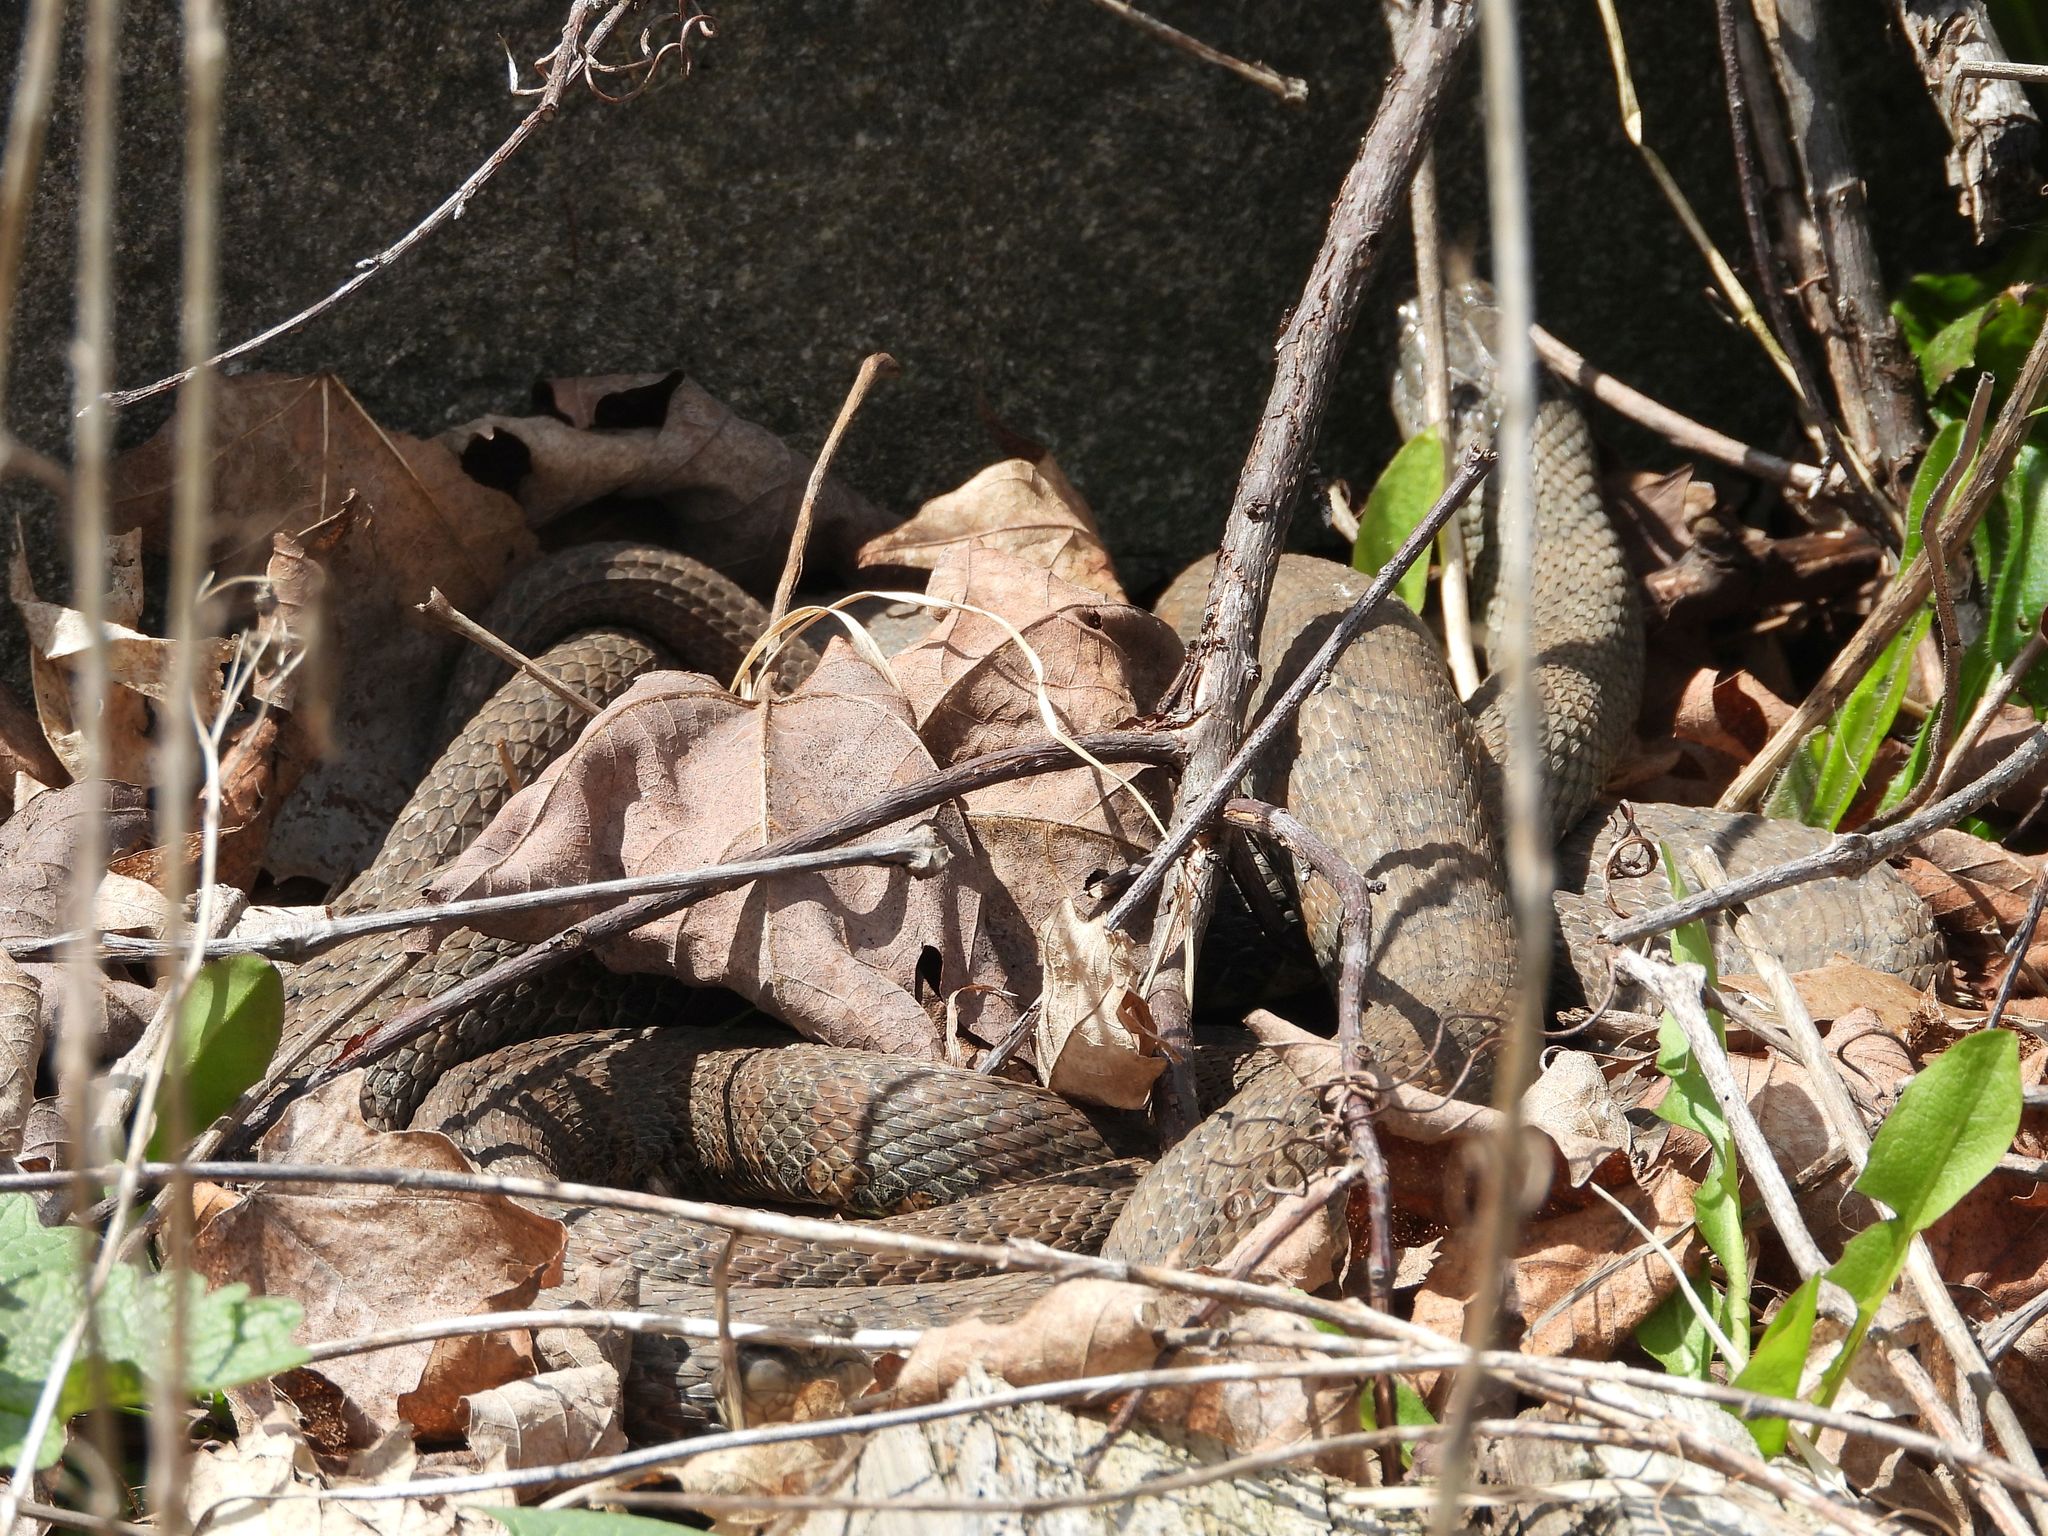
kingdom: Animalia
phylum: Chordata
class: Squamata
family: Colubridae
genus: Nerodia
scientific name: Nerodia sipedon
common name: Northern water snake
